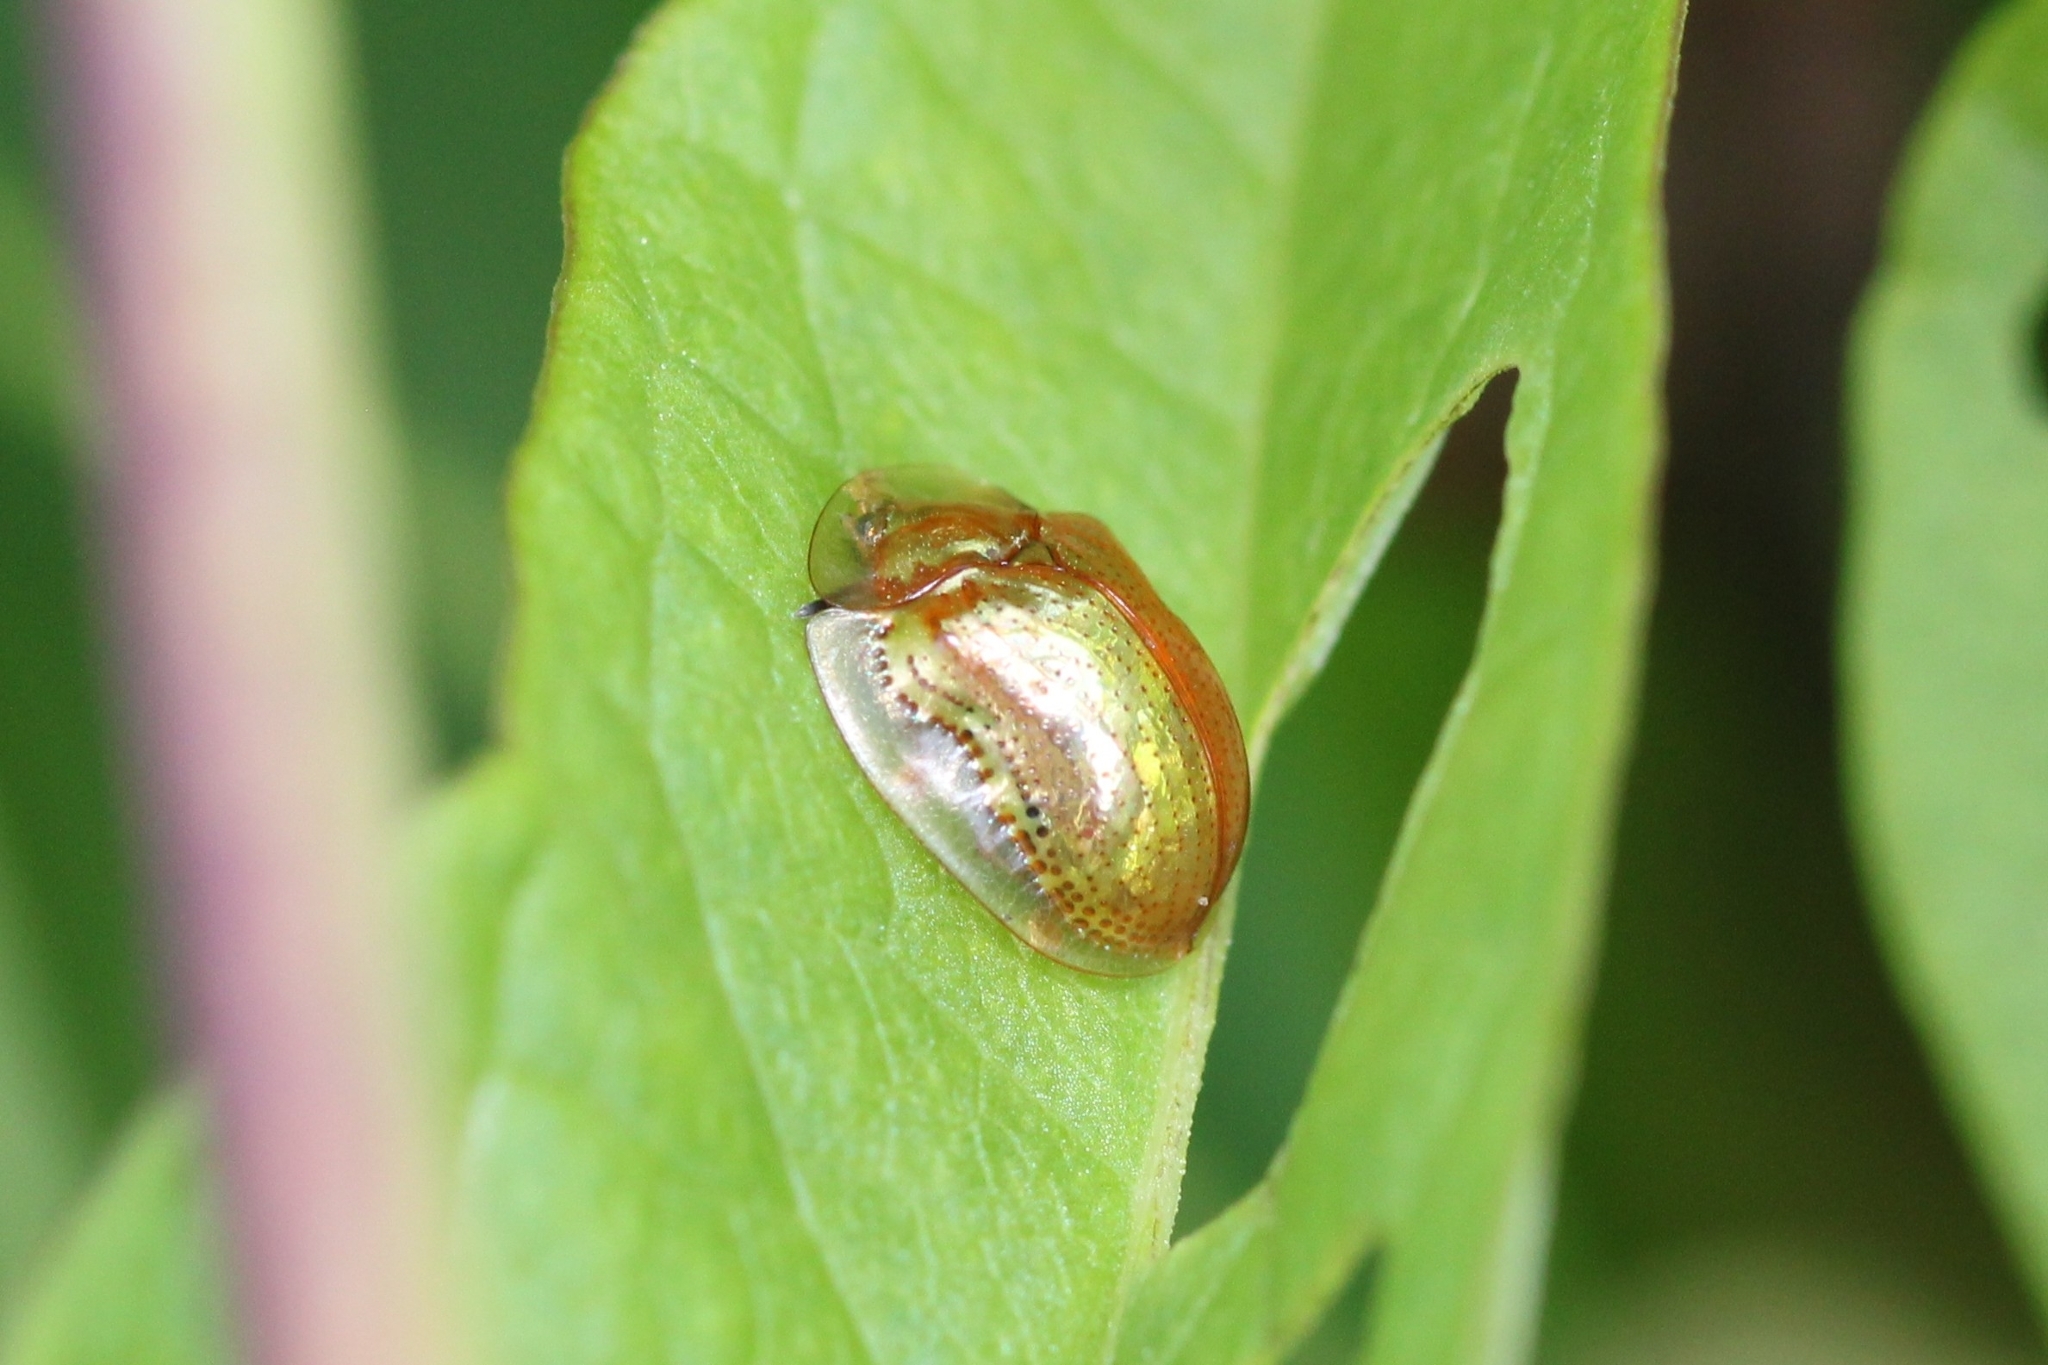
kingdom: Animalia
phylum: Arthropoda
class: Insecta
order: Coleoptera
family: Chrysomelidae
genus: Charidotella
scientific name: Charidotella sexpunctata
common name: Golden tortoise beetle
